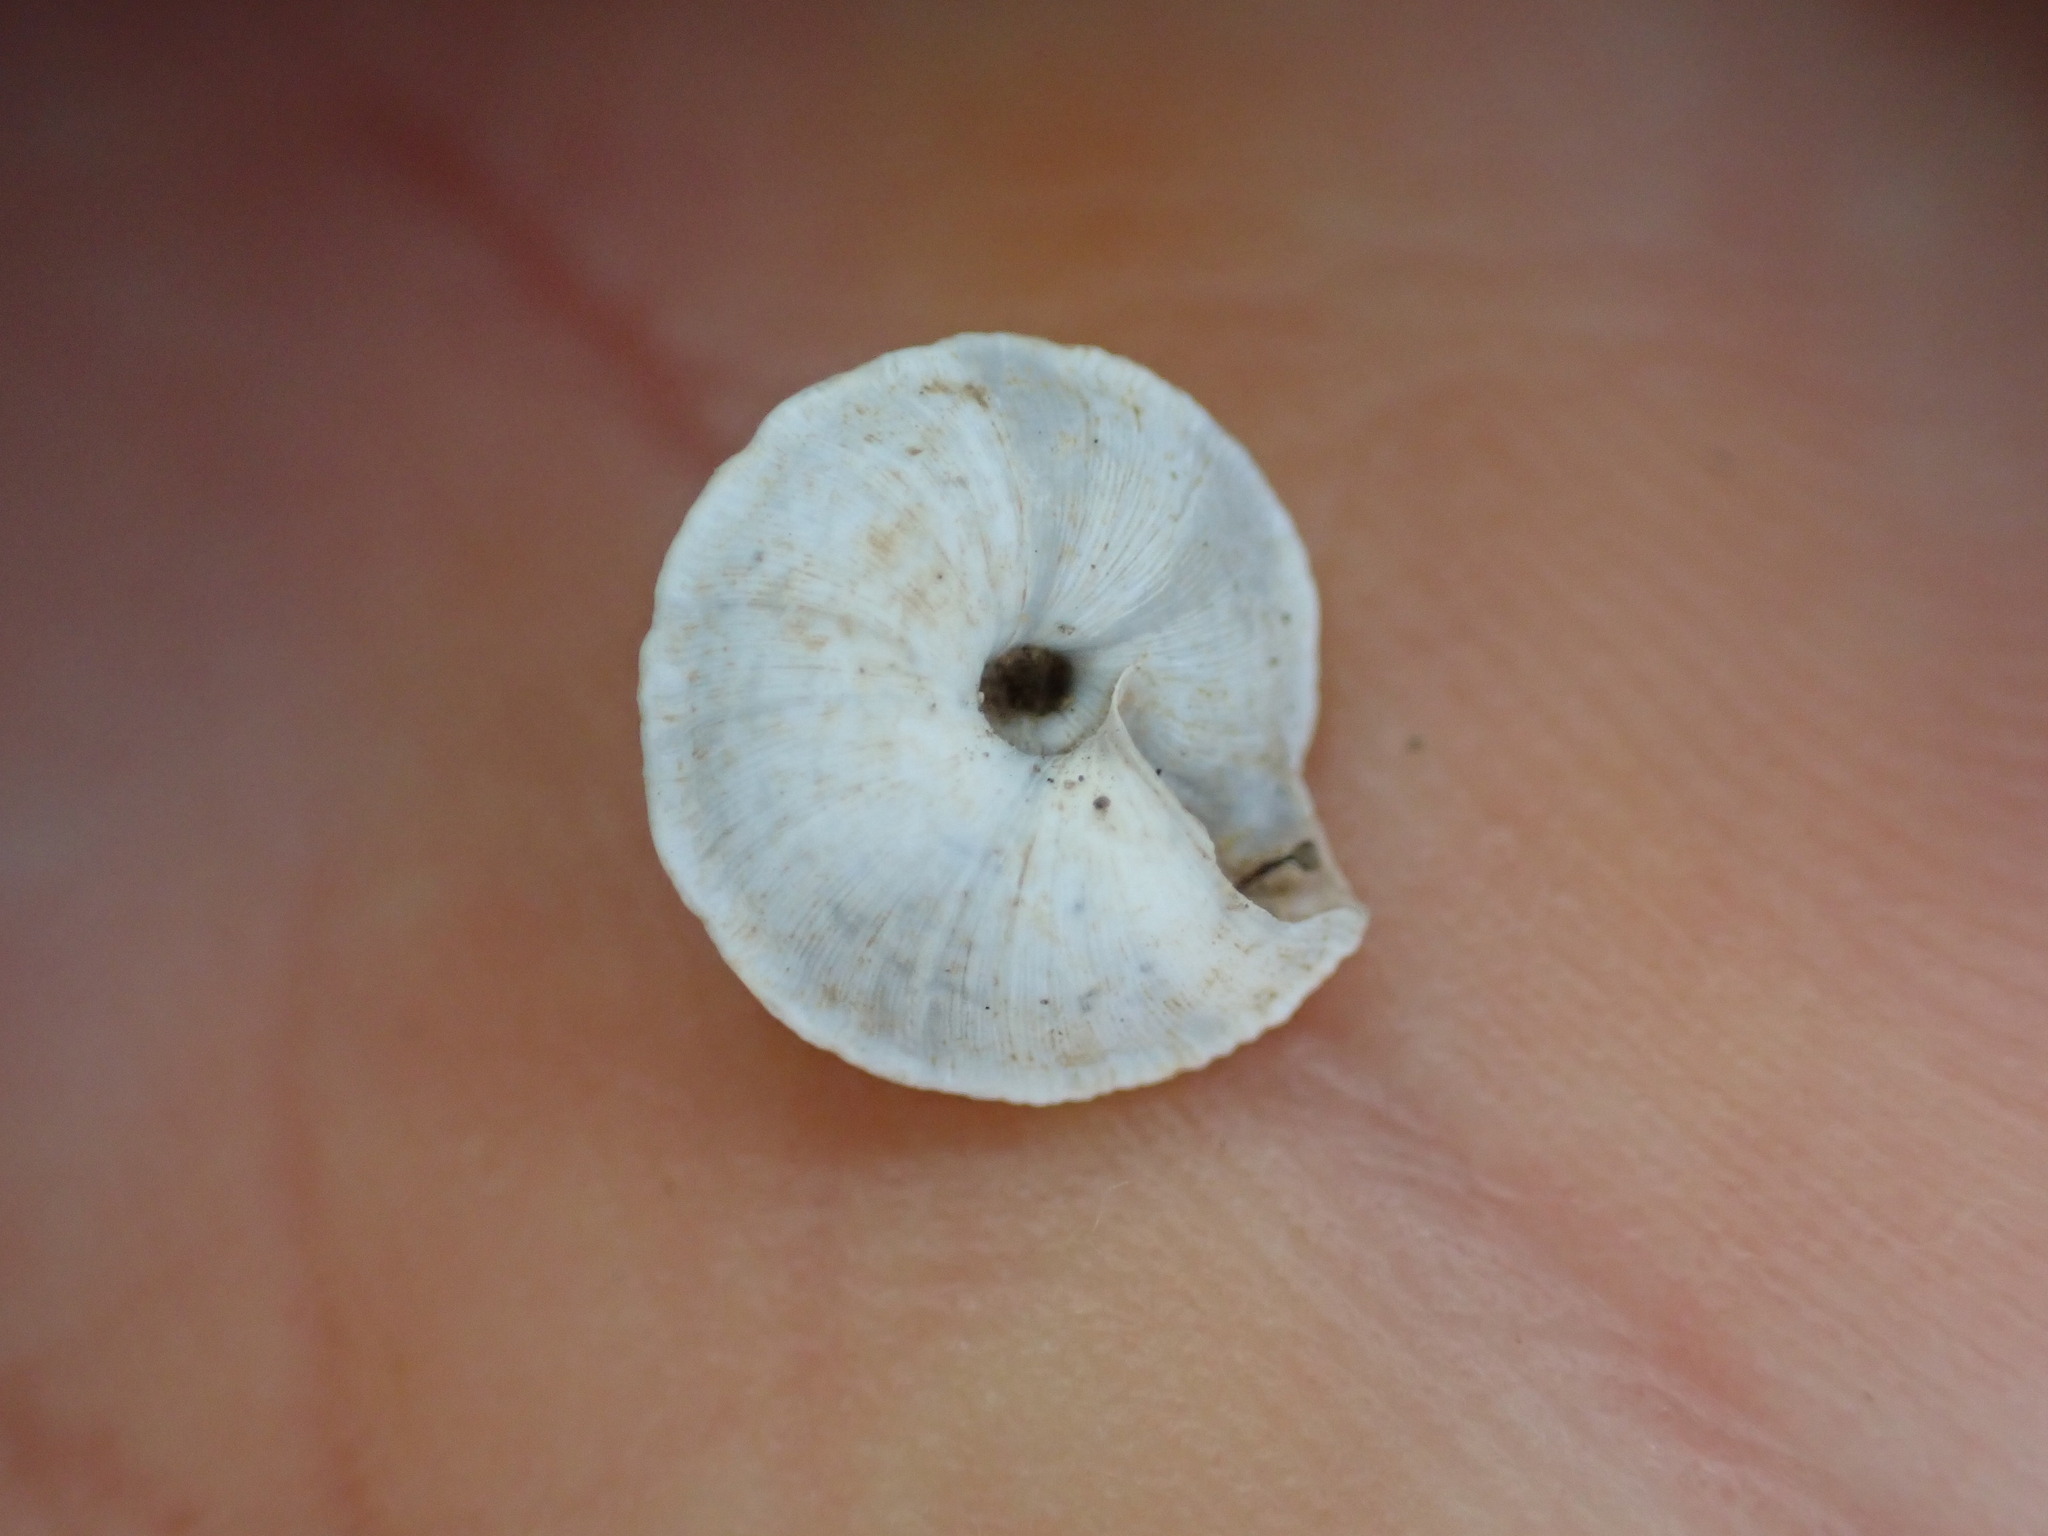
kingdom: Animalia
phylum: Mollusca
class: Gastropoda
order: Stylommatophora
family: Geomitridae
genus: Trochoidea
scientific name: Trochoidea elegans
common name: Elegant helicellid
